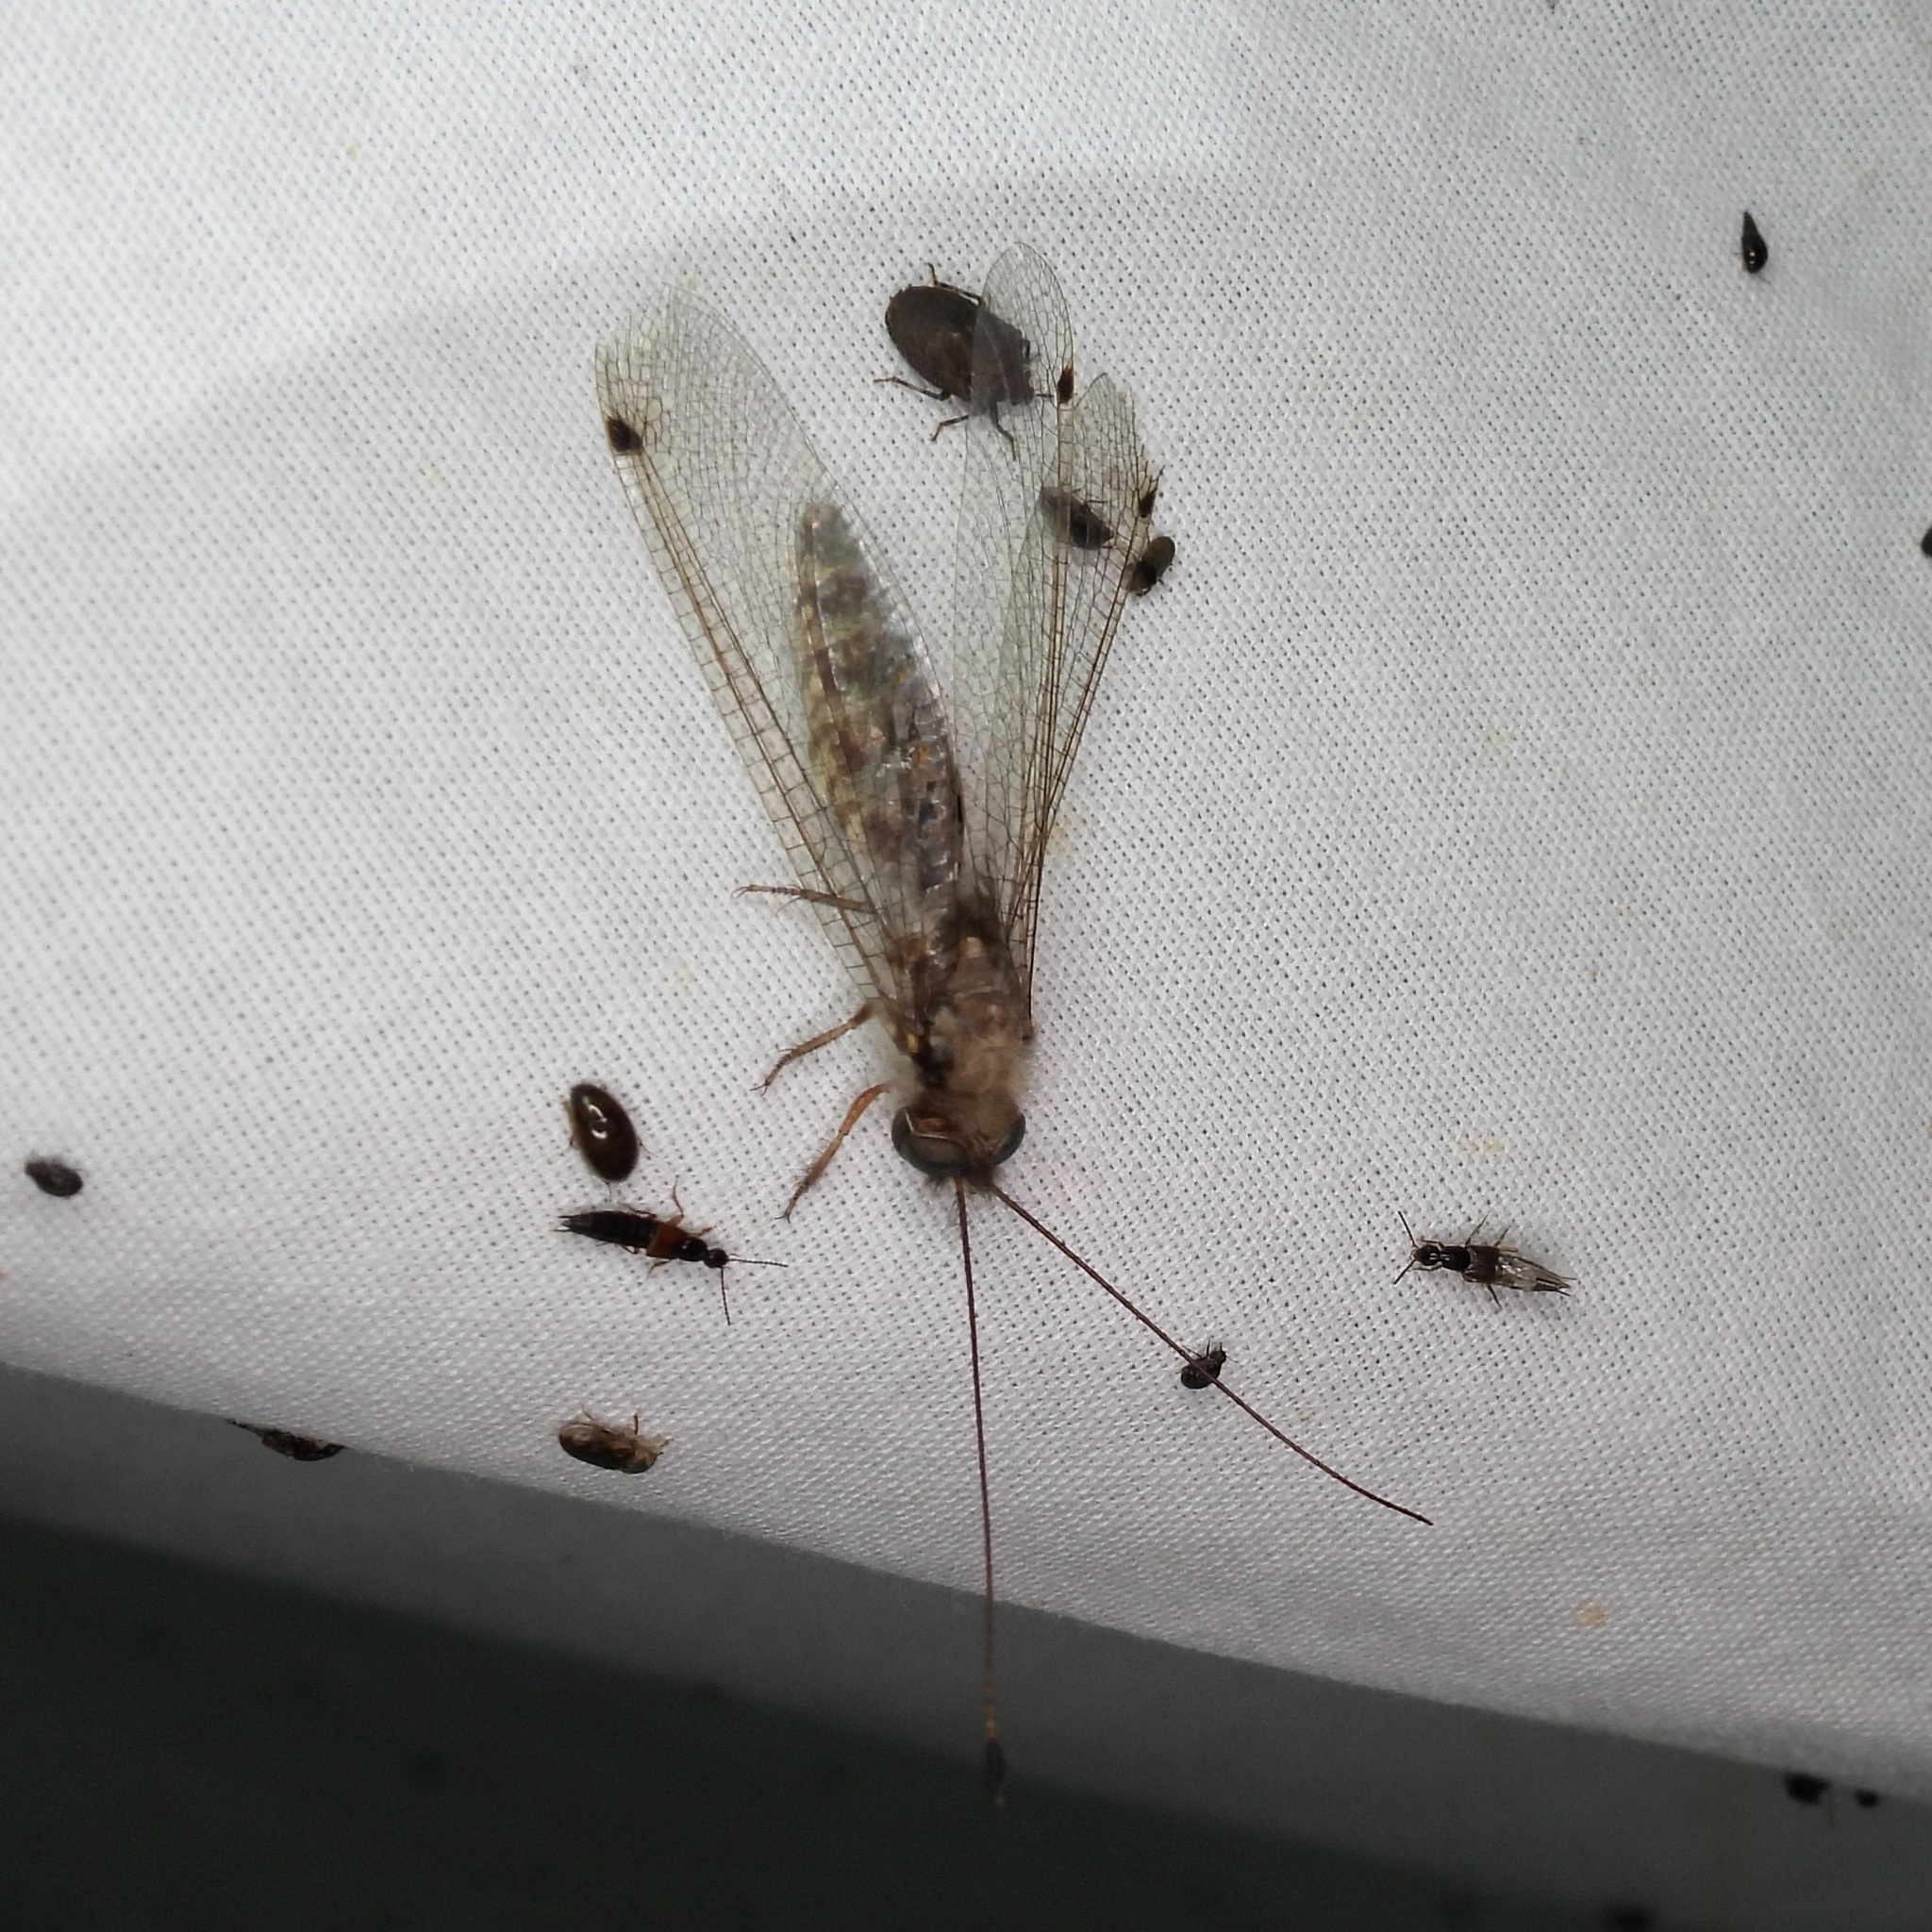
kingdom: Animalia
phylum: Arthropoda
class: Insecta
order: Neuroptera
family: Ascalaphidae
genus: Ululodes
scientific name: Ululodes macleayanus
